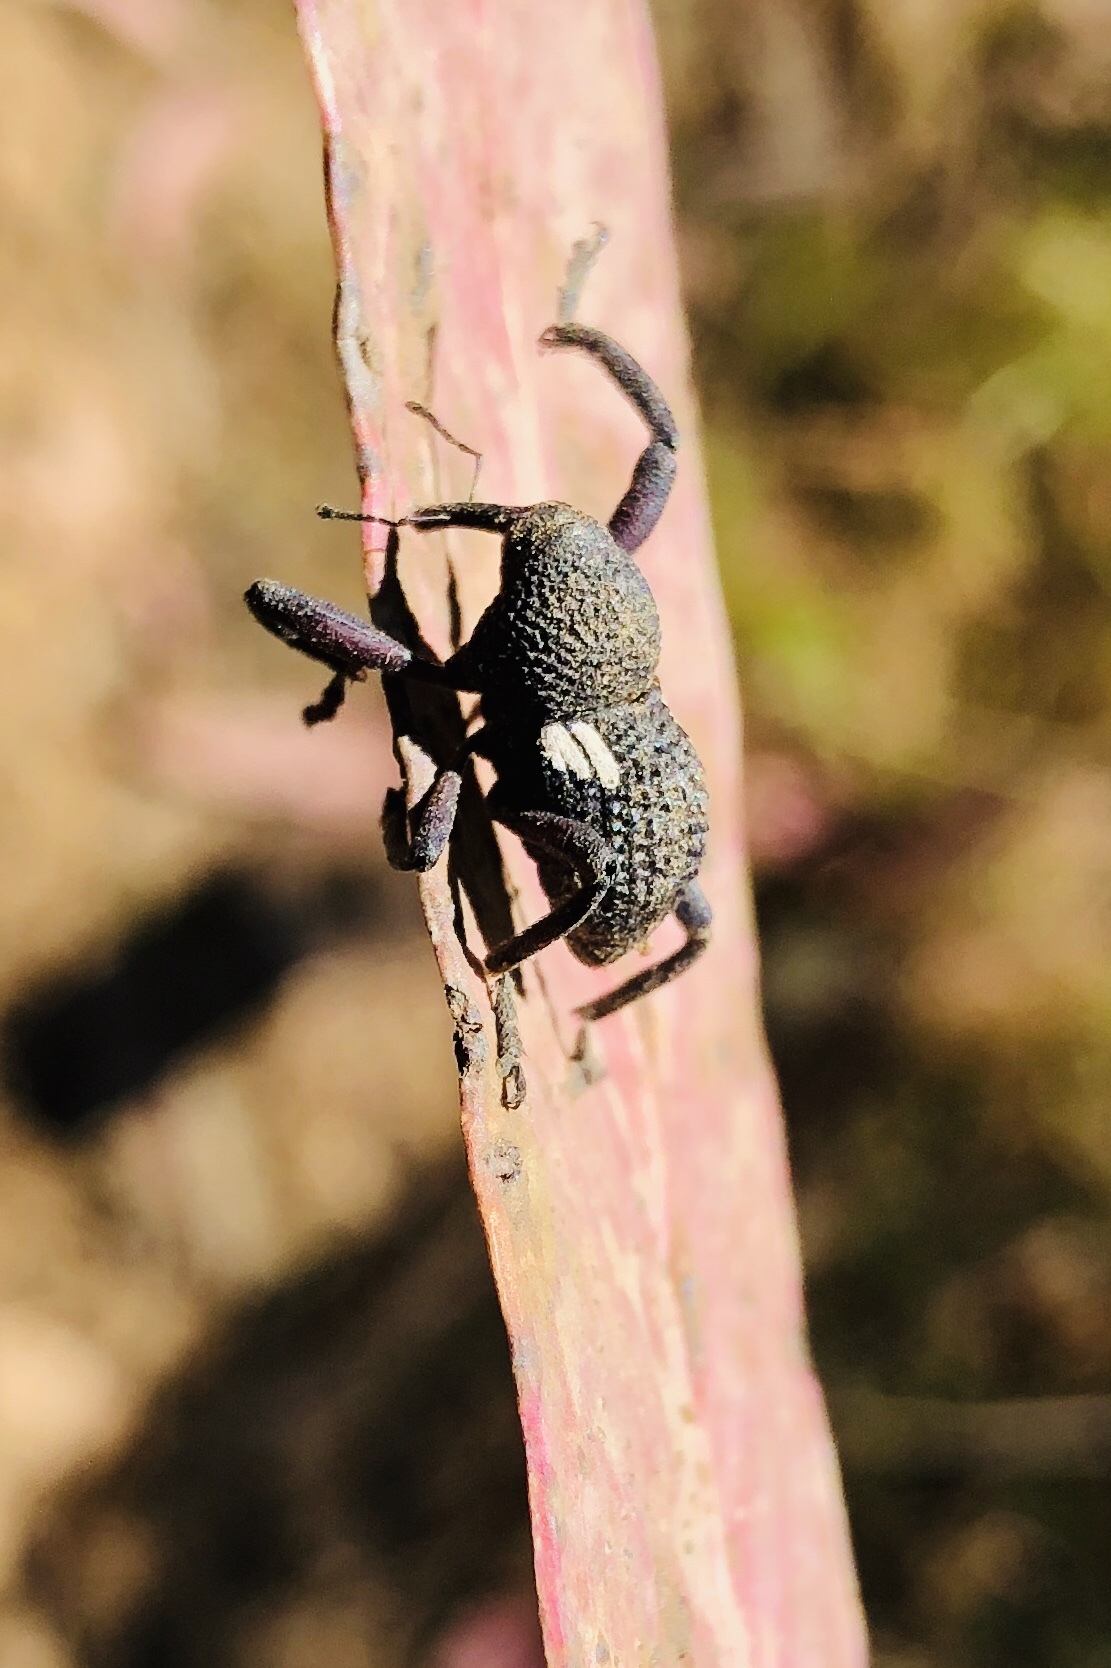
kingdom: Animalia
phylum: Arthropoda
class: Insecta
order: Coleoptera
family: Curculionidae
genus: Rhyephenes
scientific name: Rhyephenes humeralis
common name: Araè±ita chilena del pino
